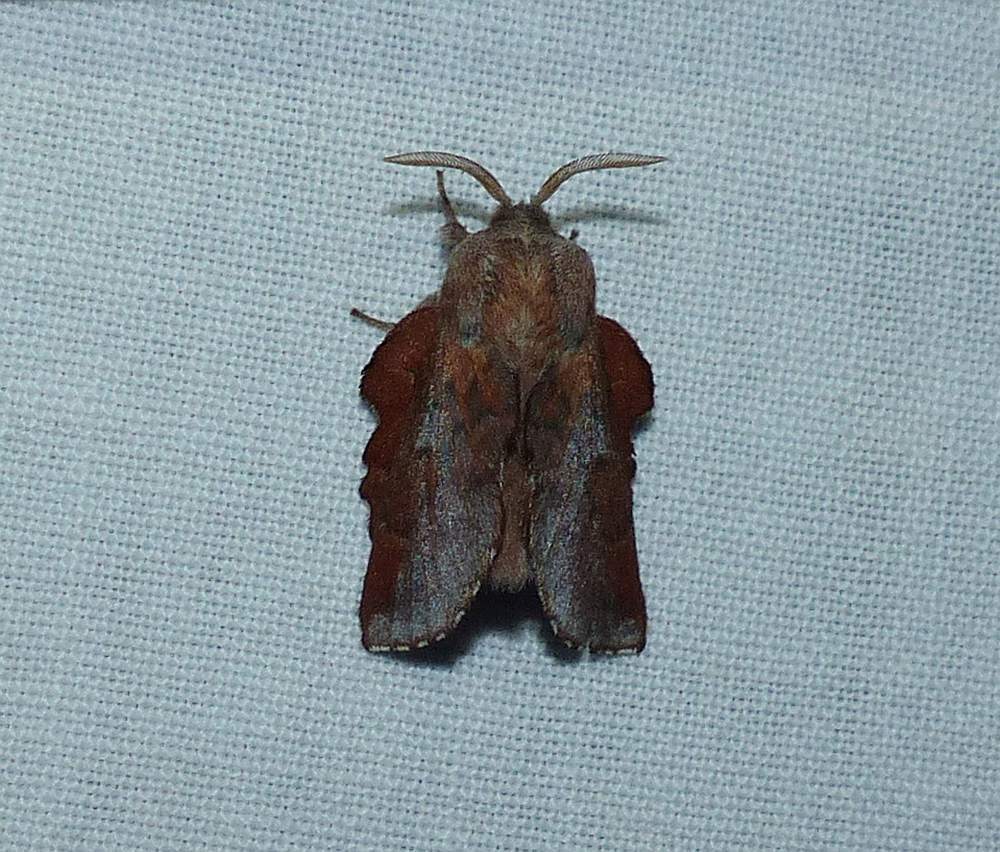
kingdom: Animalia
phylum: Arthropoda
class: Insecta
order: Lepidoptera
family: Lasiocampidae
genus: Phyllodesma
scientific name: Phyllodesma americana
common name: American lappet moth
